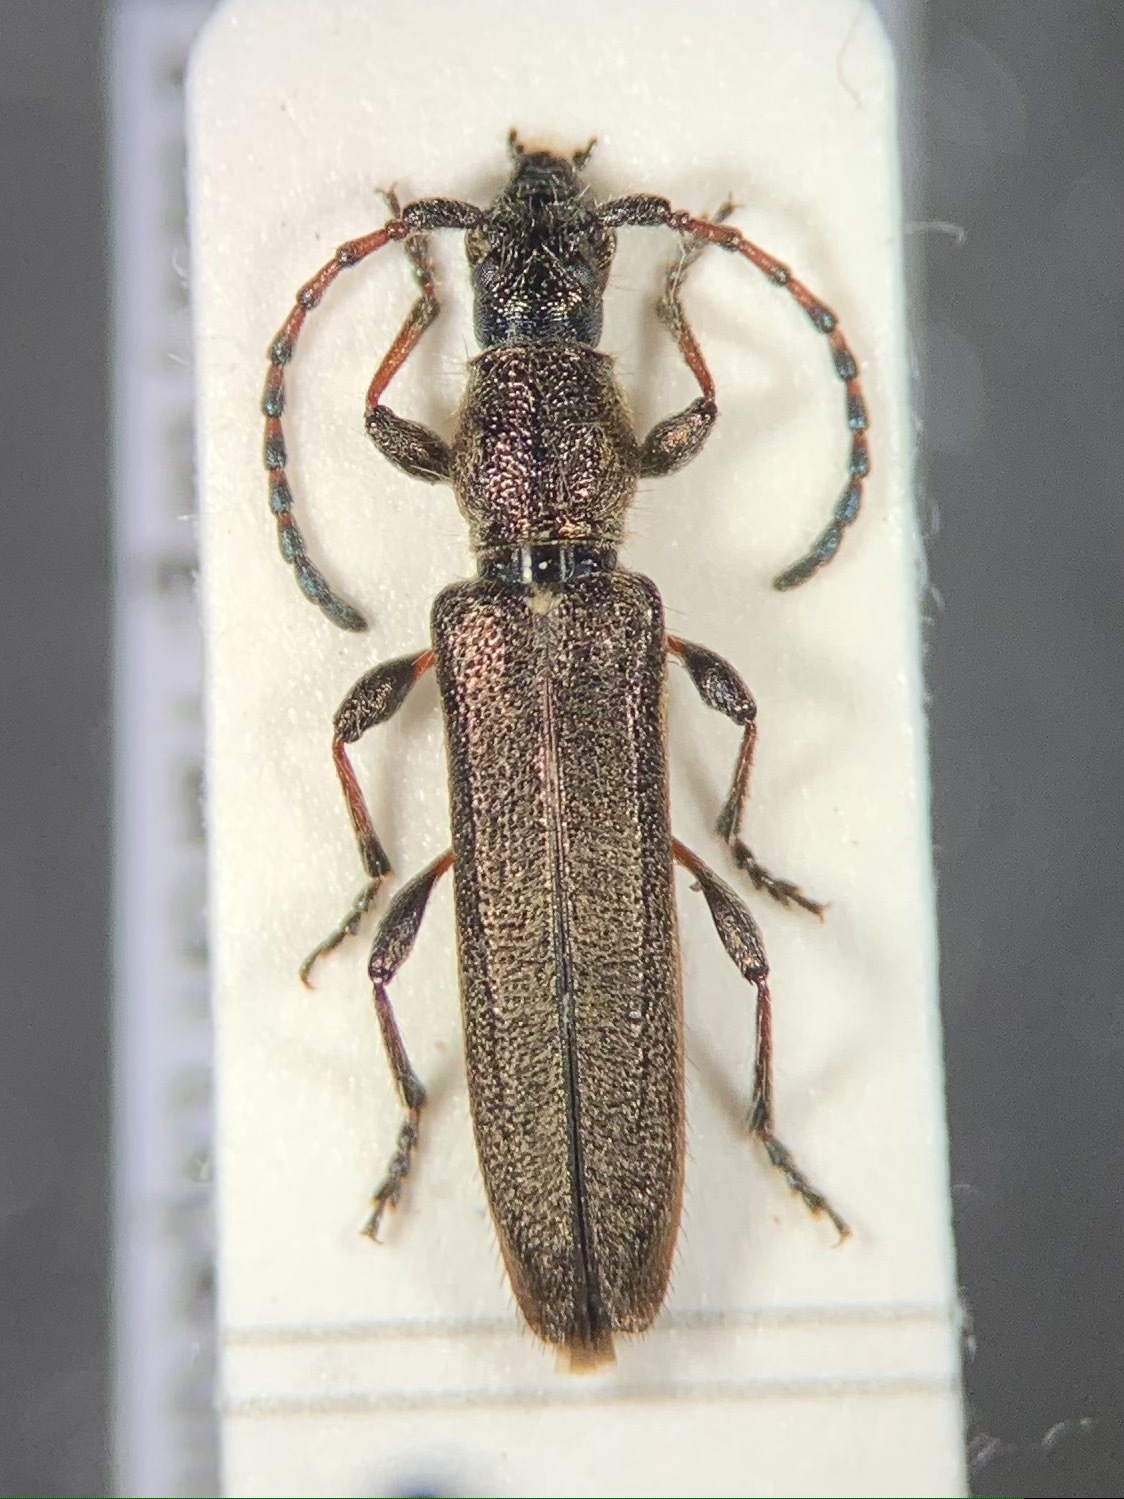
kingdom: Animalia
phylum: Arthropoda
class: Insecta
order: Coleoptera
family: Cerambycidae
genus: Deilus
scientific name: Deilus fugax
